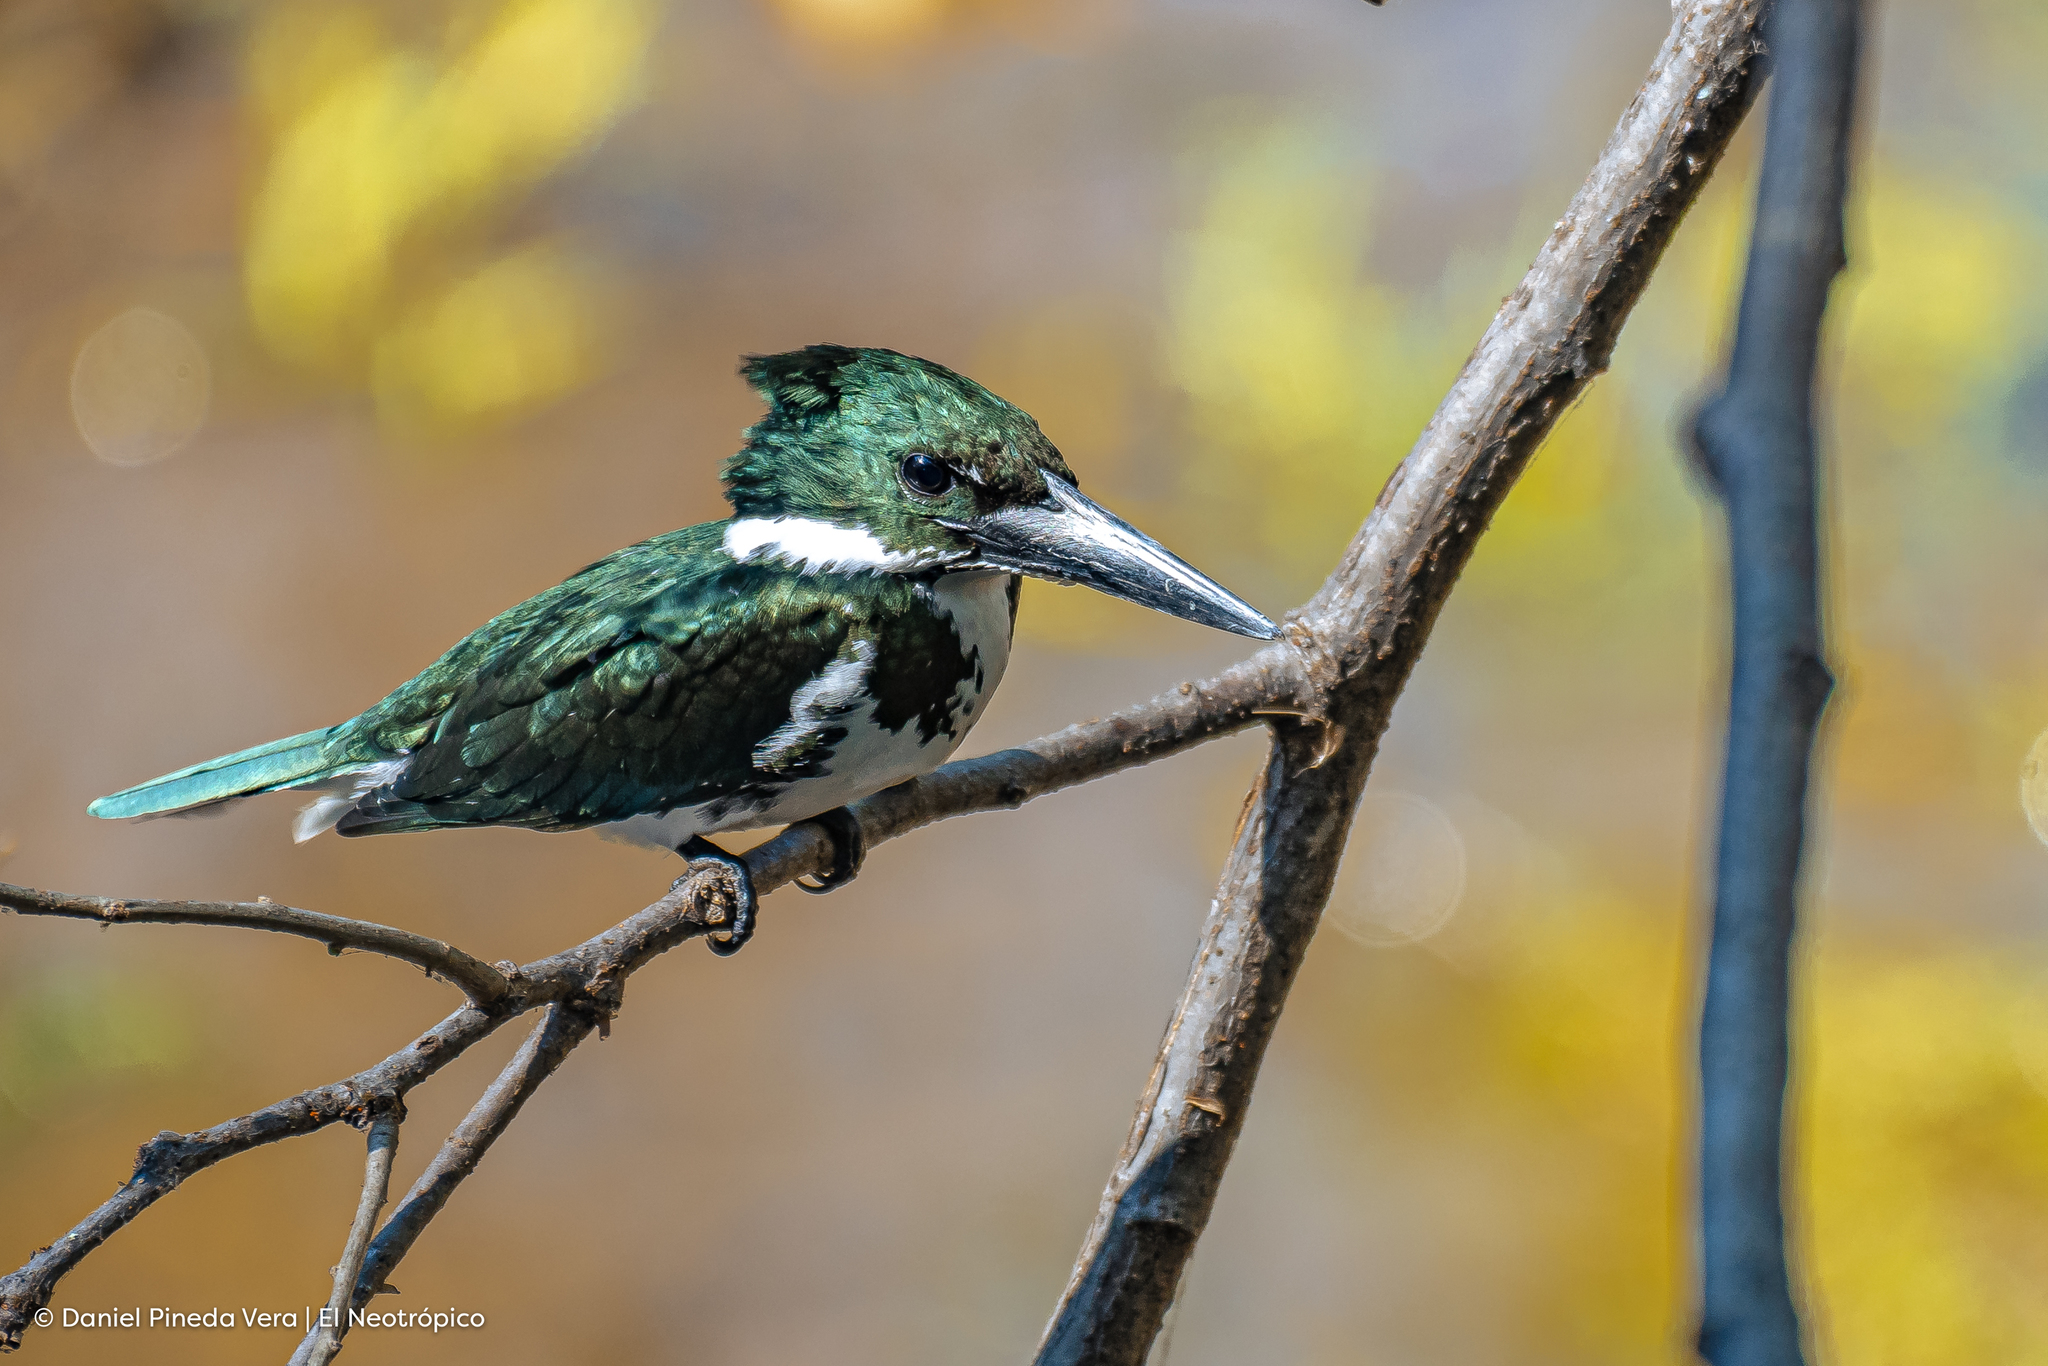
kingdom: Animalia
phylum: Chordata
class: Aves
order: Coraciiformes
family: Alcedinidae
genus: Chloroceryle
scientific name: Chloroceryle amazona
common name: Amazon kingfisher
